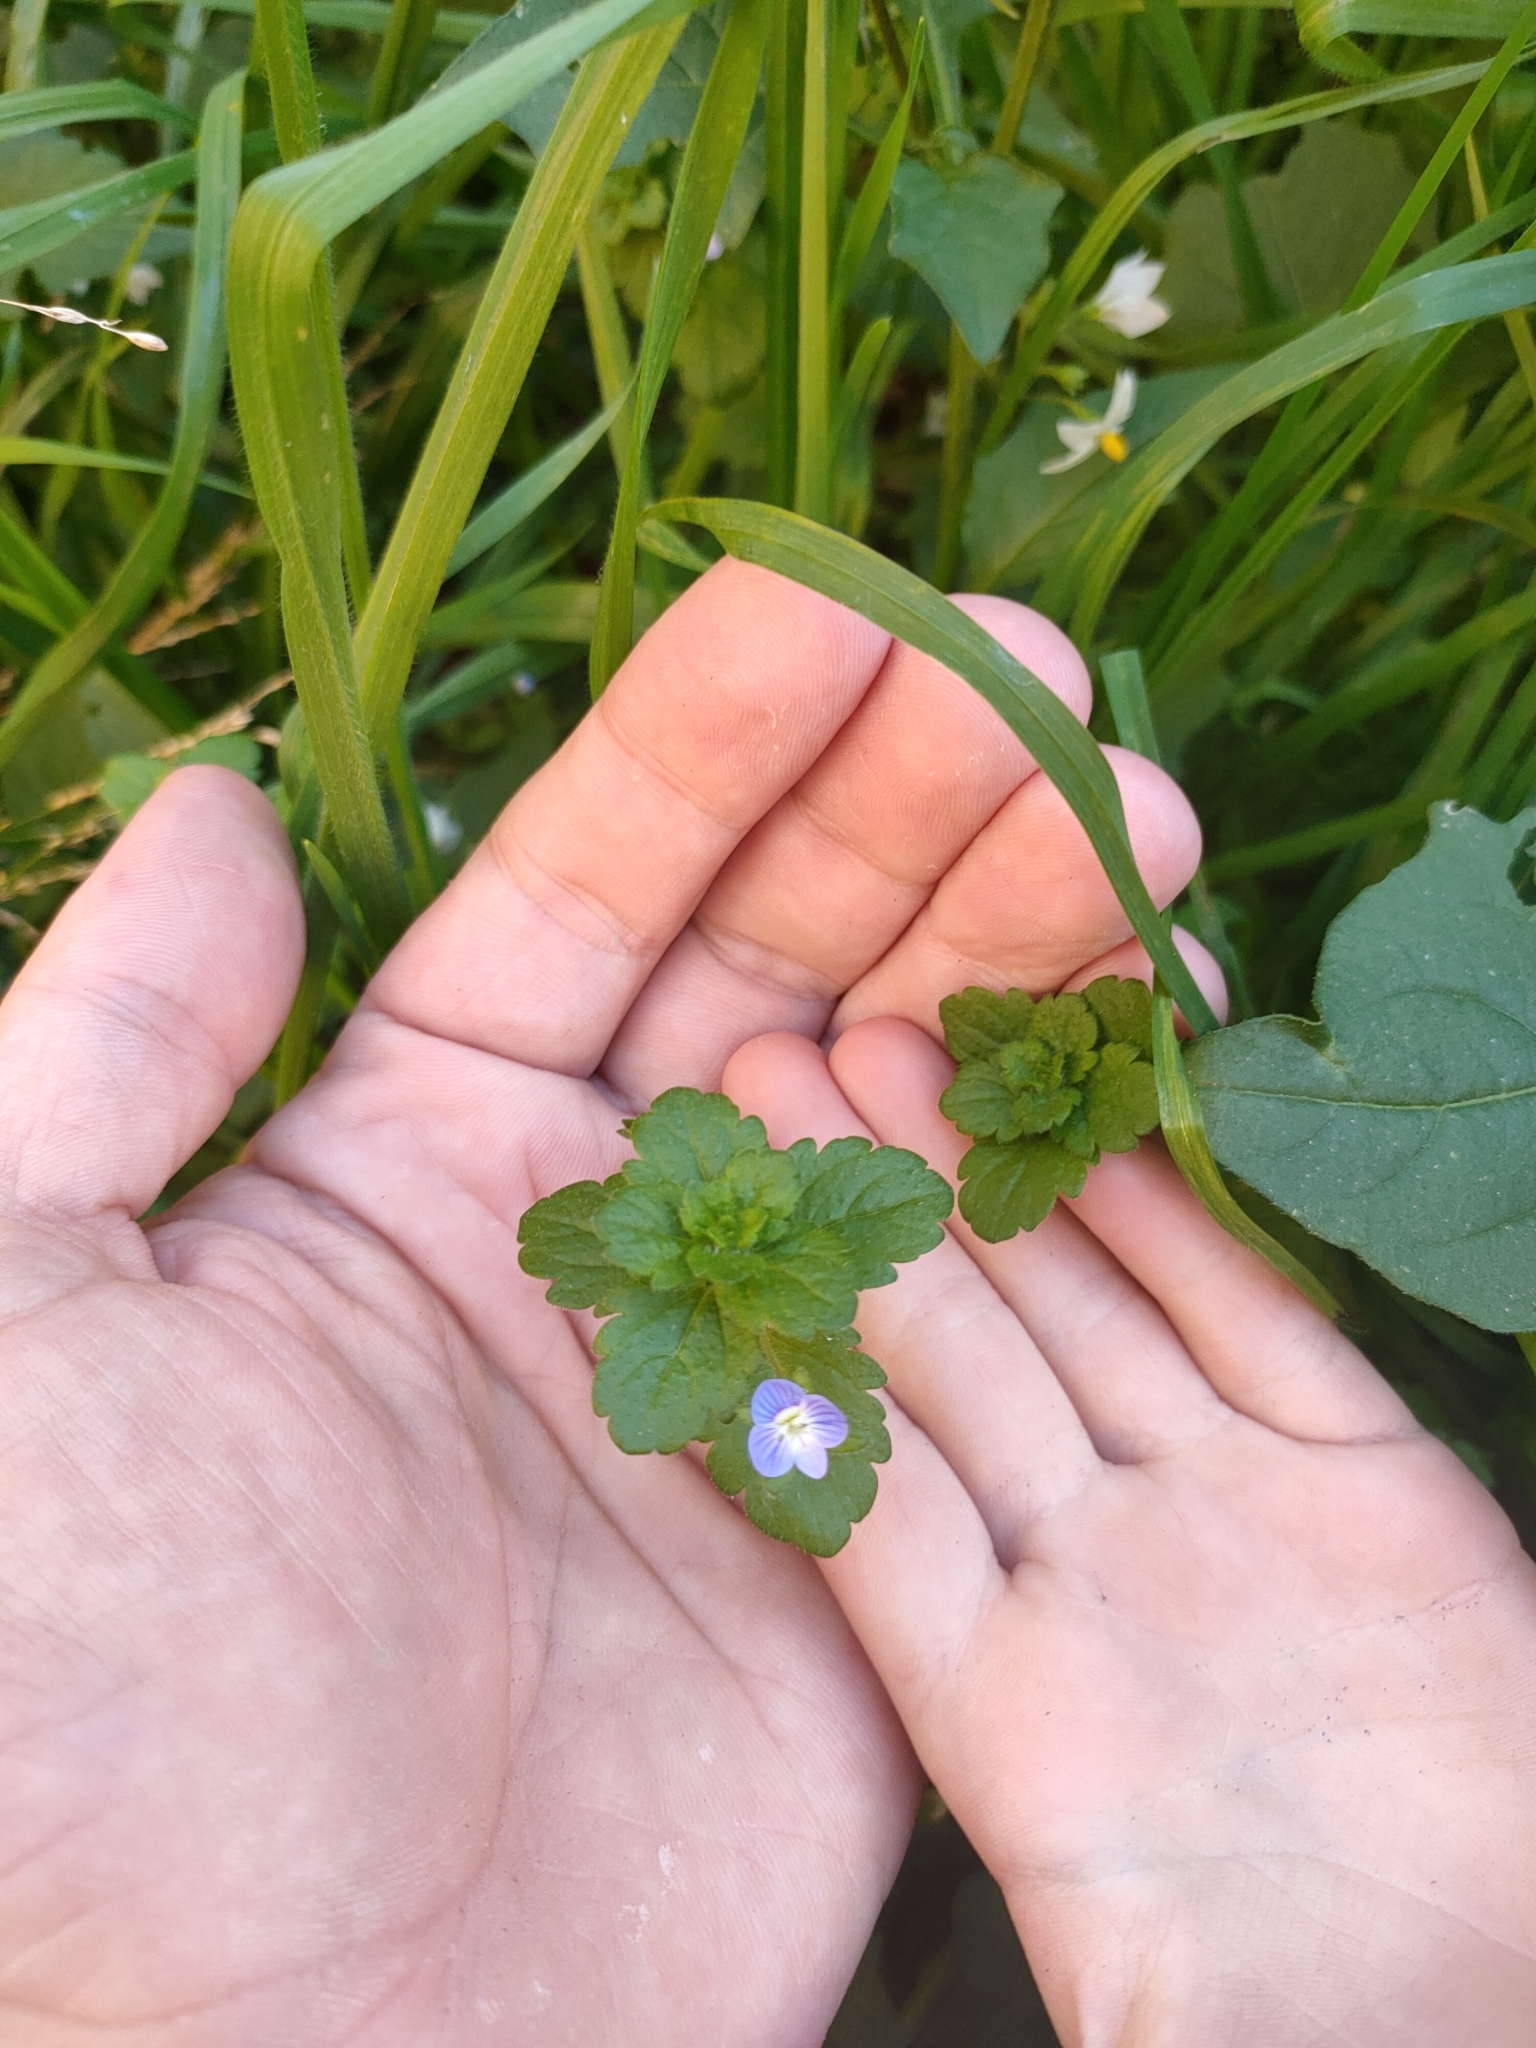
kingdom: Plantae
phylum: Tracheophyta
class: Magnoliopsida
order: Lamiales
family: Plantaginaceae
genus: Veronica
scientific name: Veronica persica
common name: Common field-speedwell
